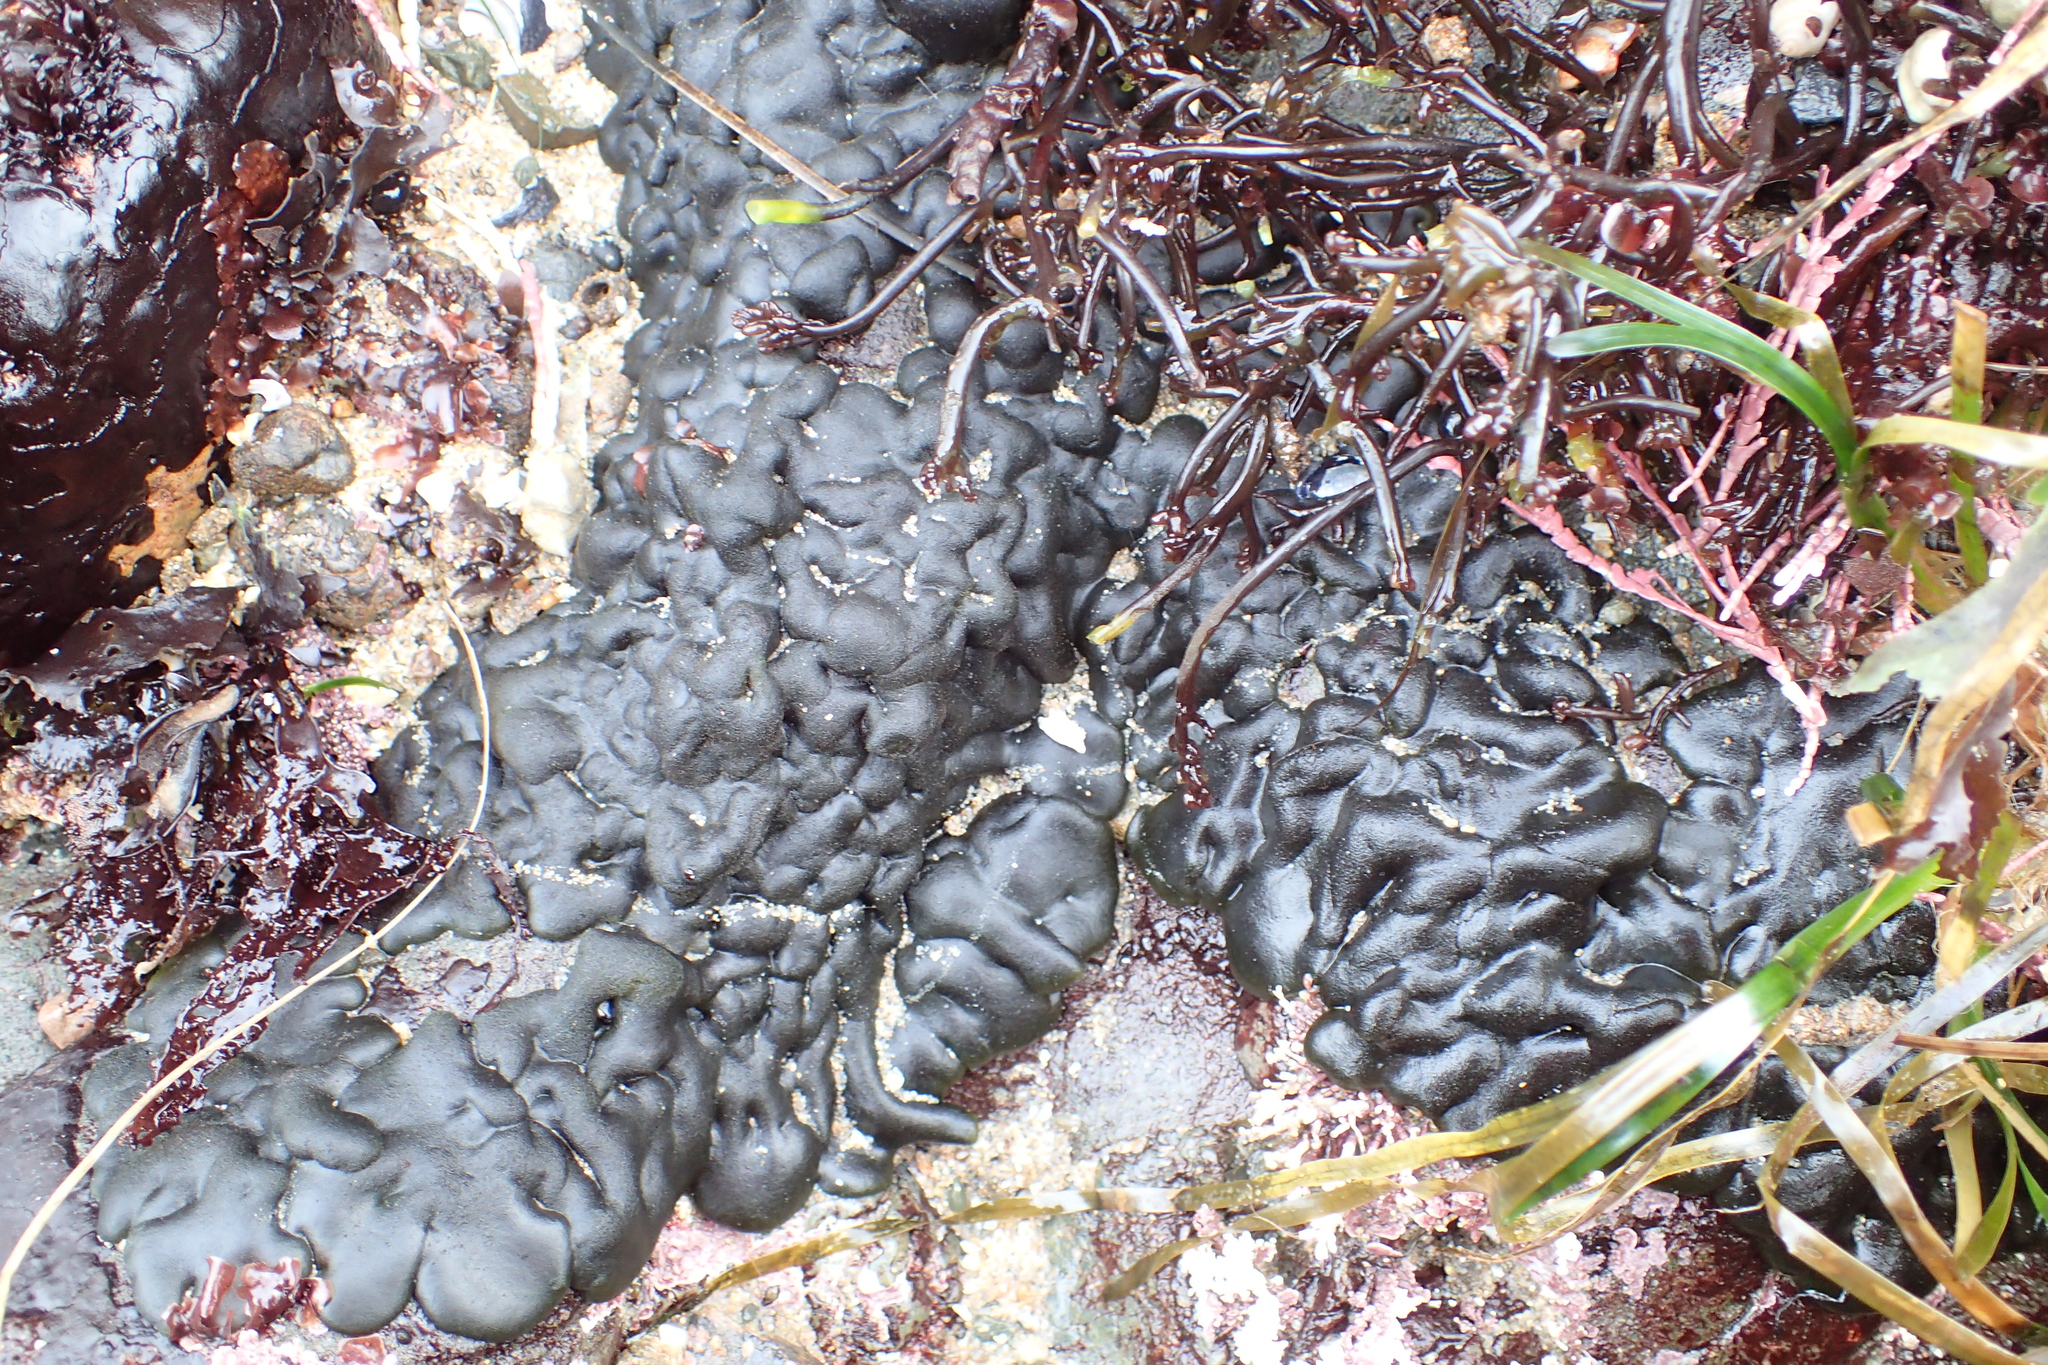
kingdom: Plantae
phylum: Chlorophyta
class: Ulvophyceae
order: Bryopsidales
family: Codiaceae
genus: Codium
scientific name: Codium setchellii
